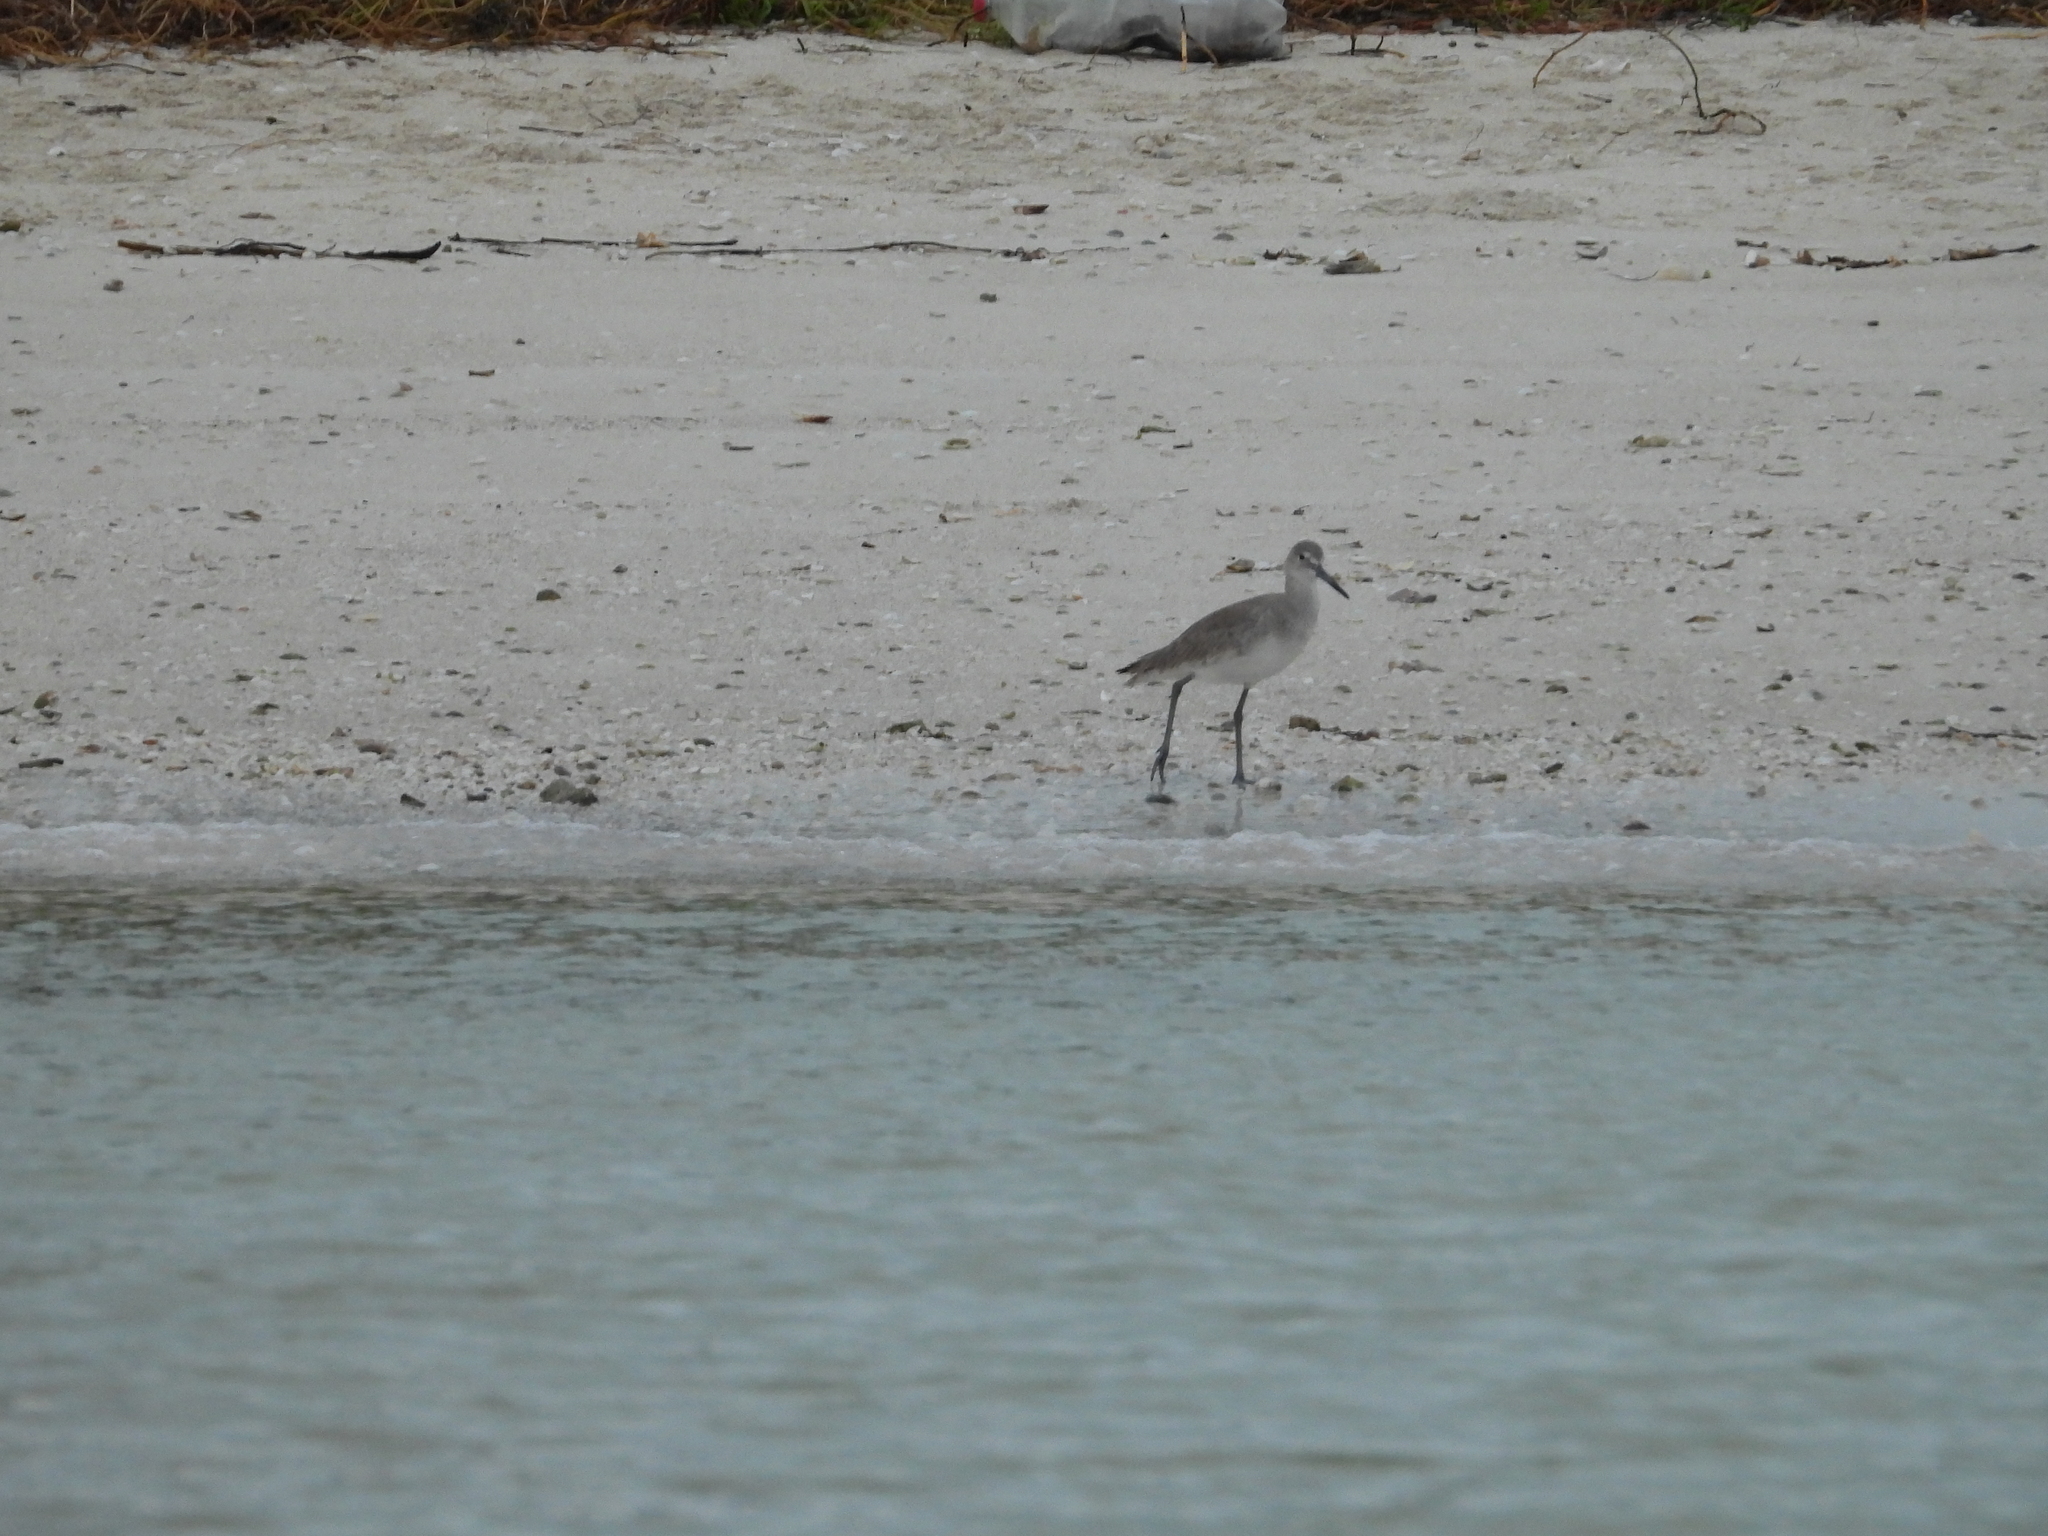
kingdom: Animalia
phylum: Chordata
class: Aves
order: Charadriiformes
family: Scolopacidae
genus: Tringa
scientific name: Tringa semipalmata
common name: Willet
